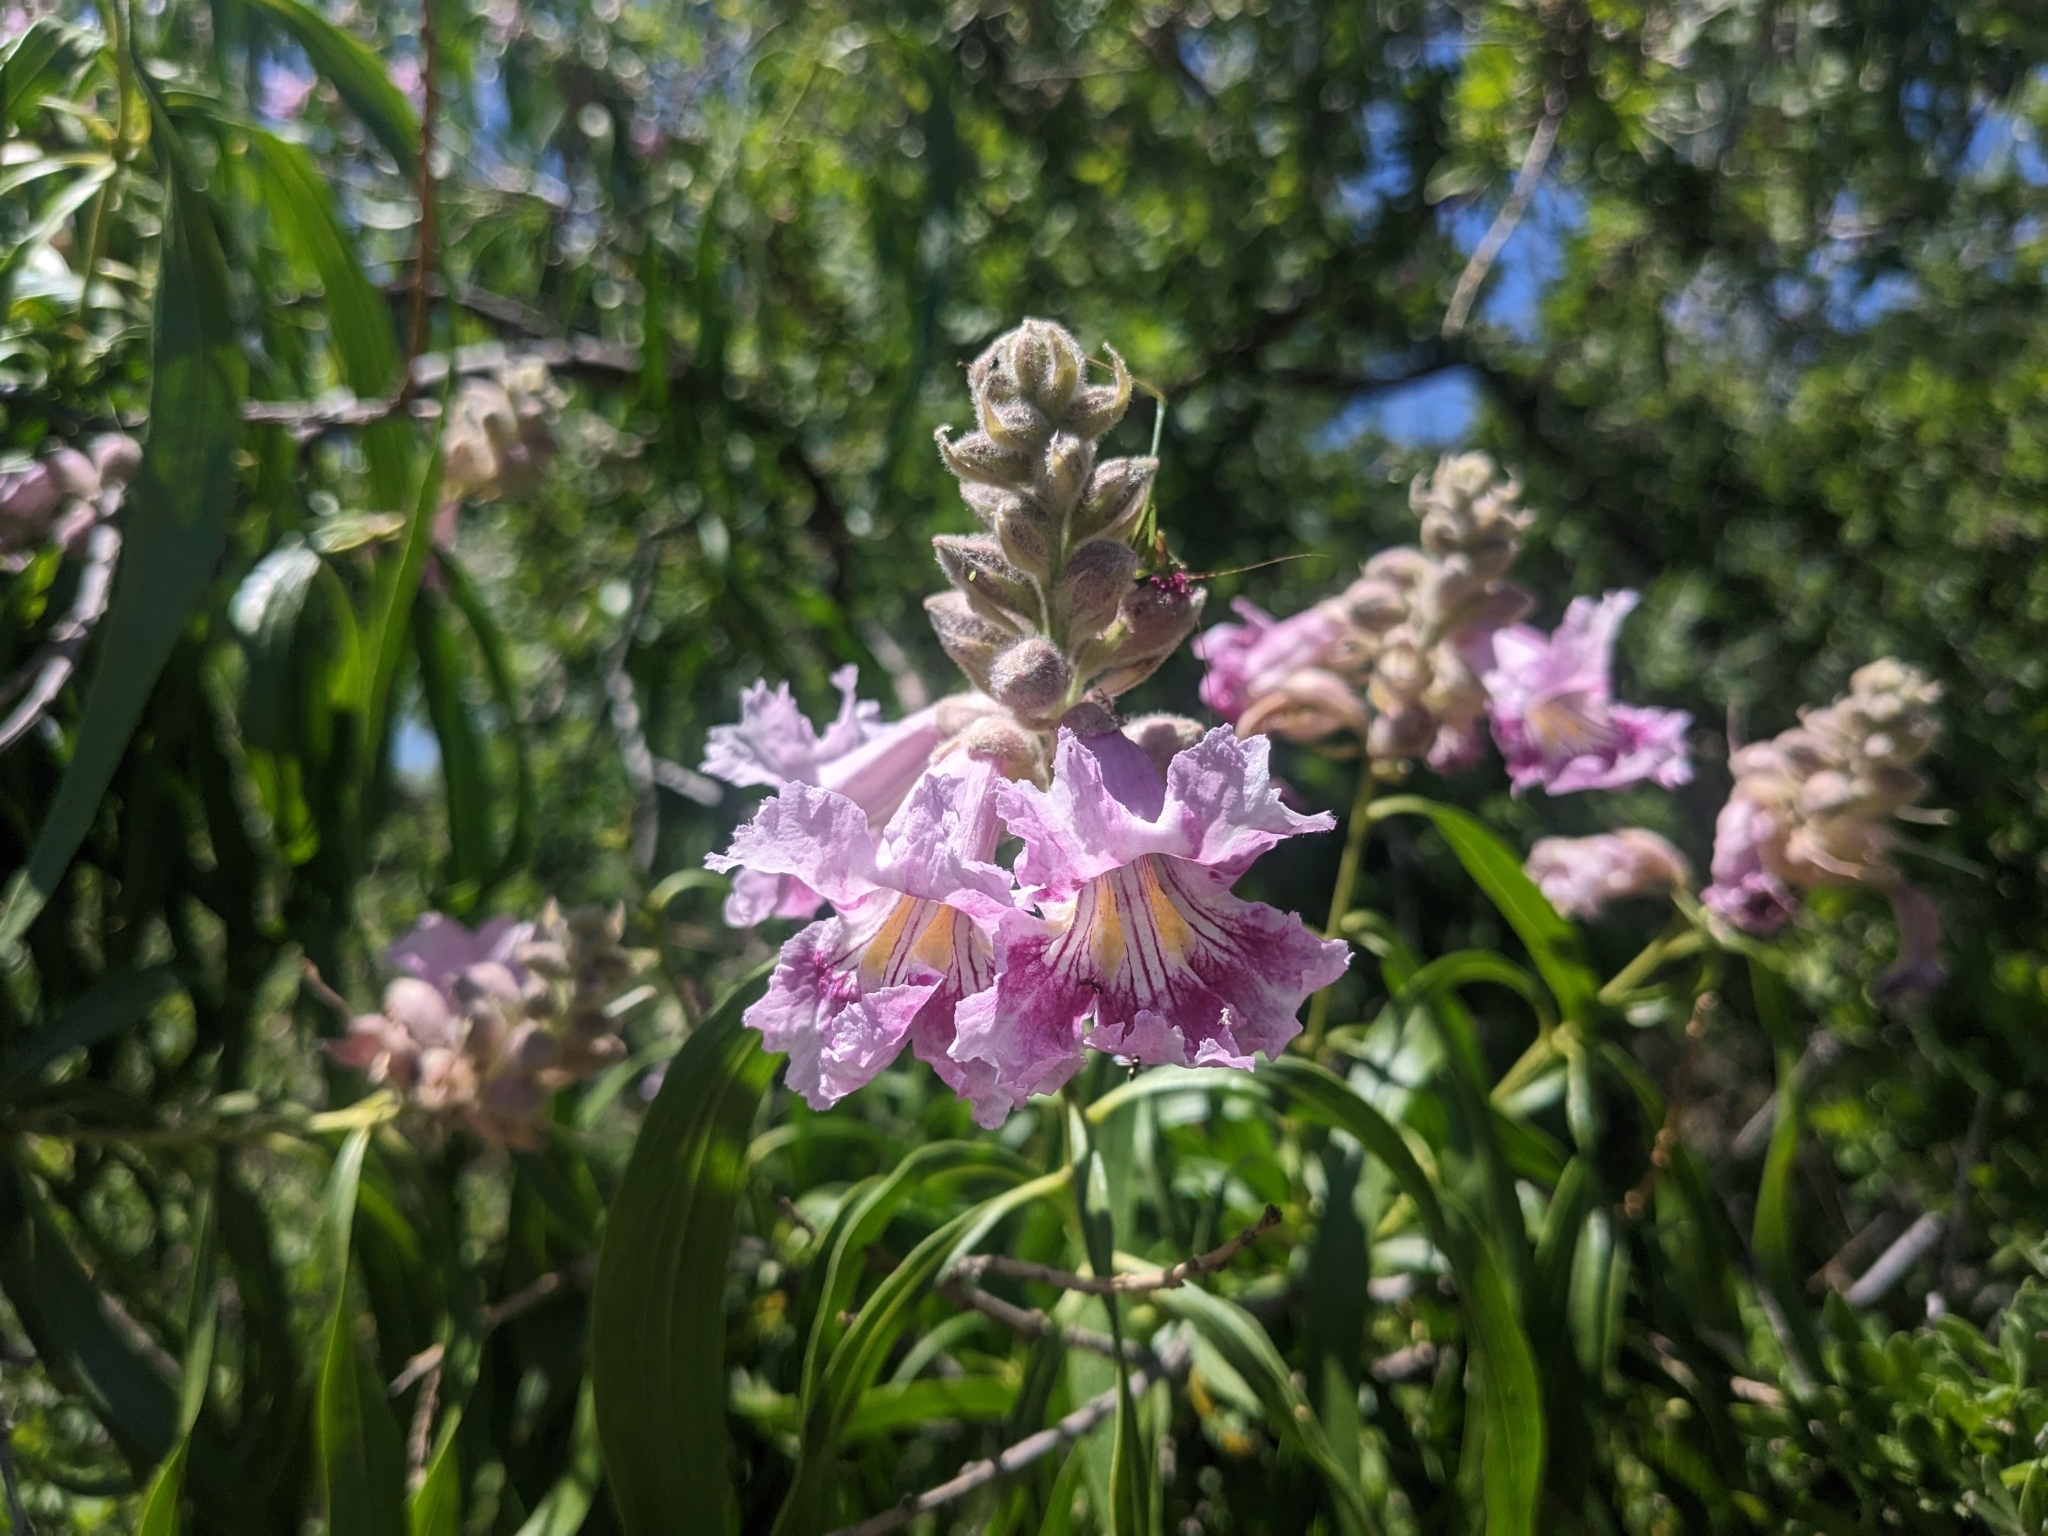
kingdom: Plantae
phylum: Tracheophyta
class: Magnoliopsida
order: Lamiales
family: Bignoniaceae
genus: Chilopsis
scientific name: Chilopsis linearis
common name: Desert-willow
